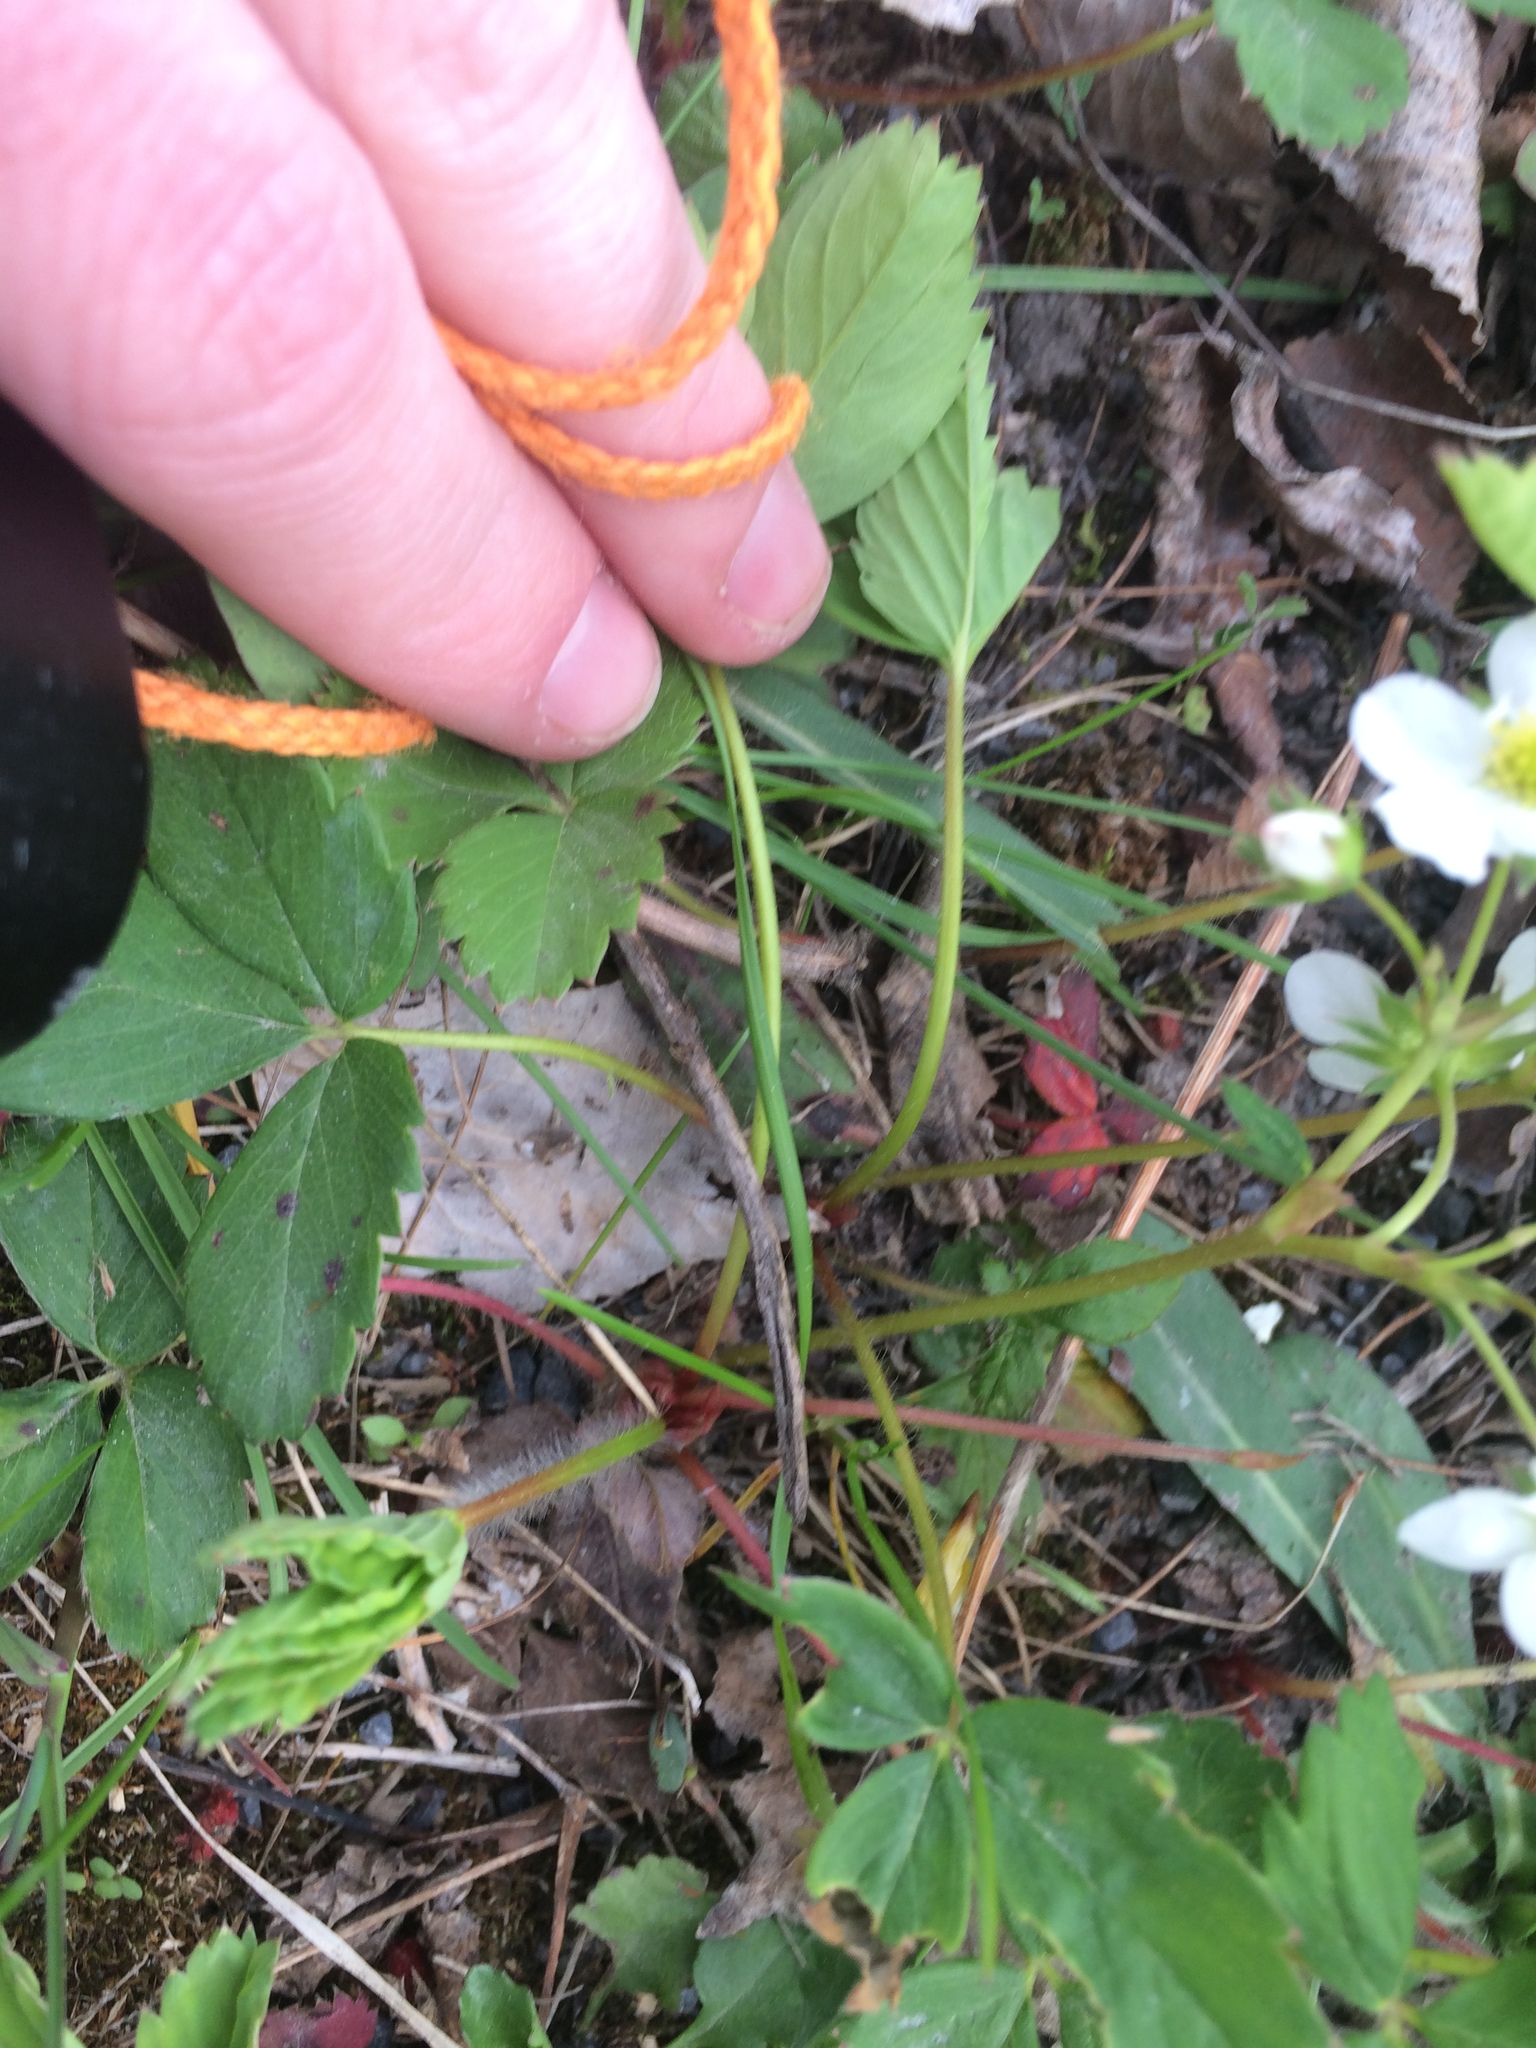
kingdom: Plantae
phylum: Tracheophyta
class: Magnoliopsida
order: Rosales
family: Rosaceae
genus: Fragaria
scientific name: Fragaria virginiana
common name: Thickleaved wild strawberry
